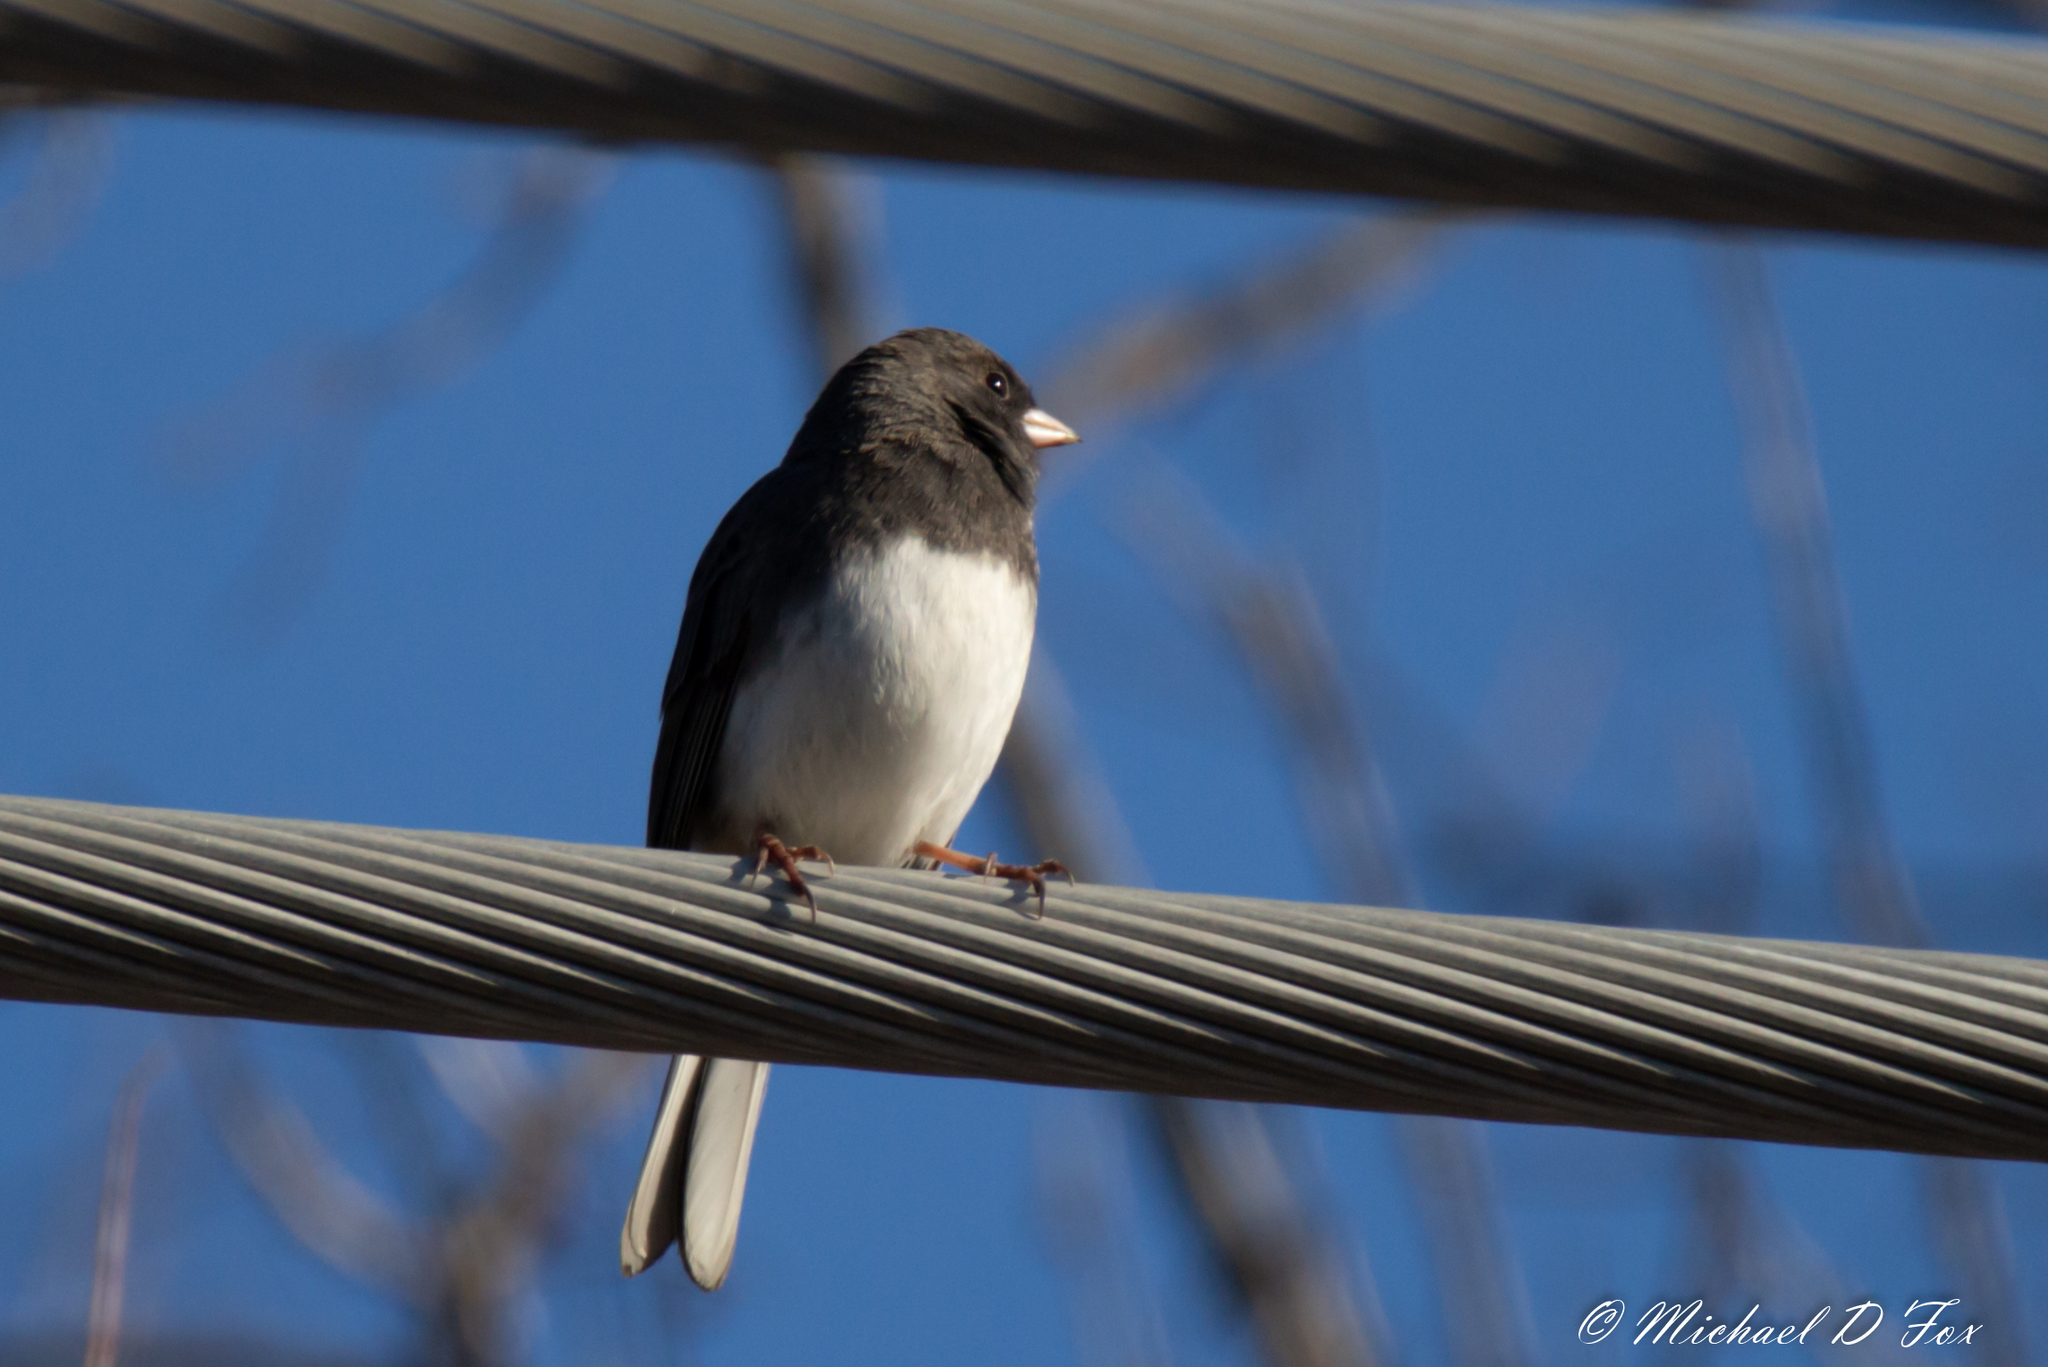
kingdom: Animalia
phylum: Chordata
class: Aves
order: Passeriformes
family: Passerellidae
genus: Junco
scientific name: Junco hyemalis
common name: Dark-eyed junco
